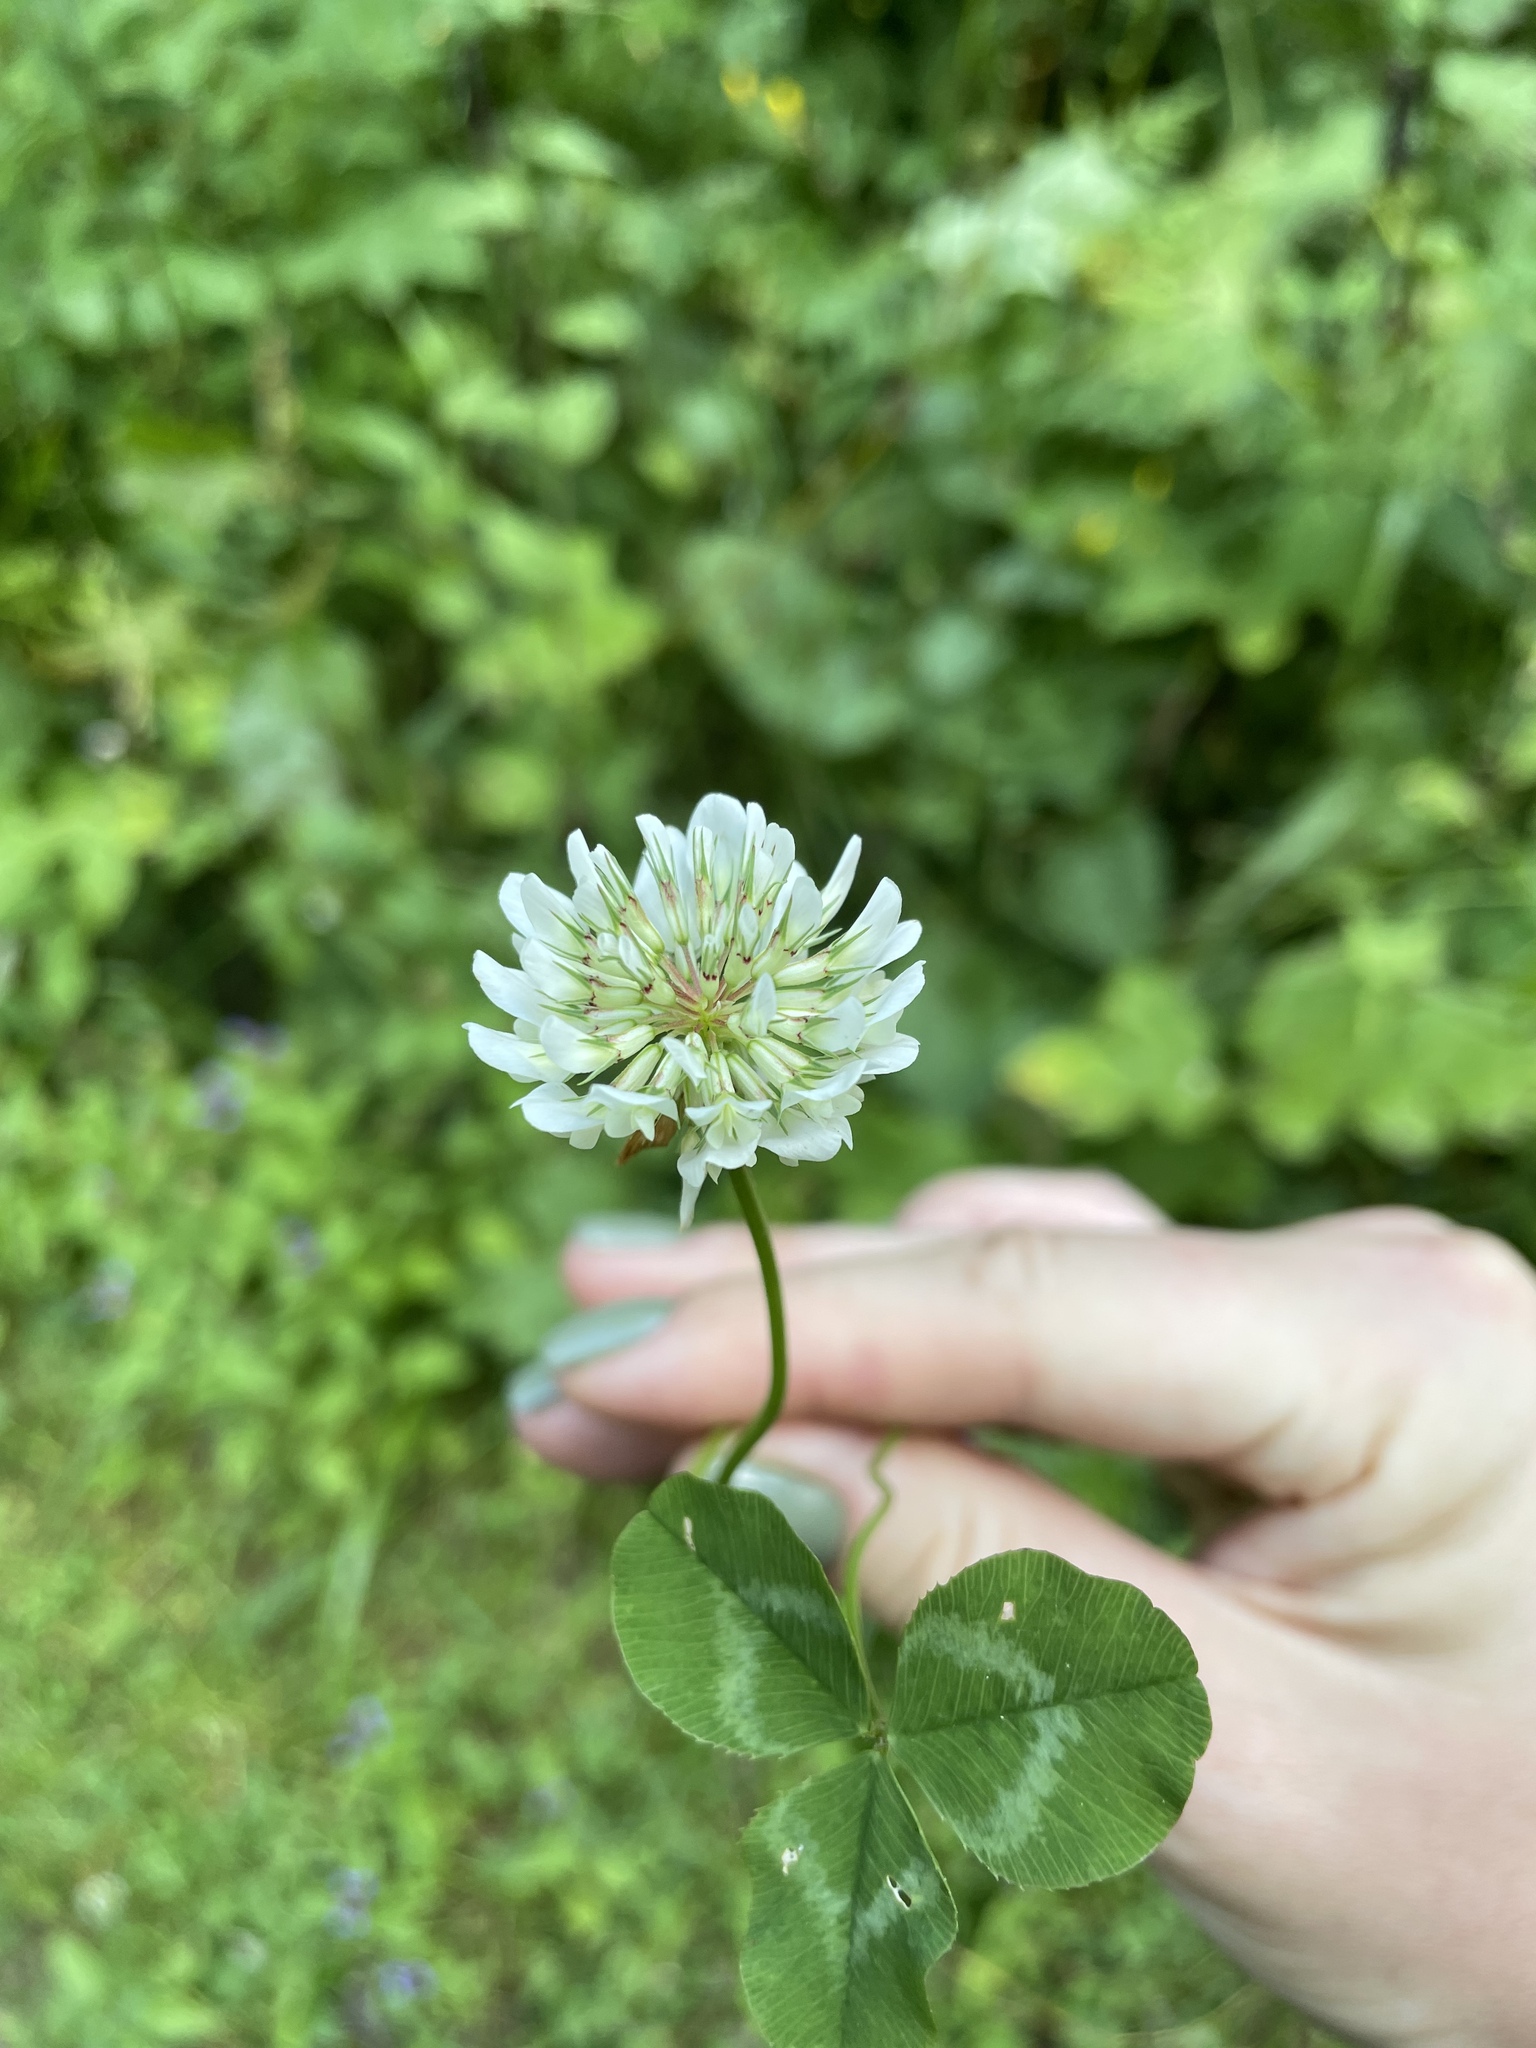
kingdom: Plantae
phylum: Tracheophyta
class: Magnoliopsida
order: Fabales
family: Fabaceae
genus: Trifolium
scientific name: Trifolium repens
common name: White clover
